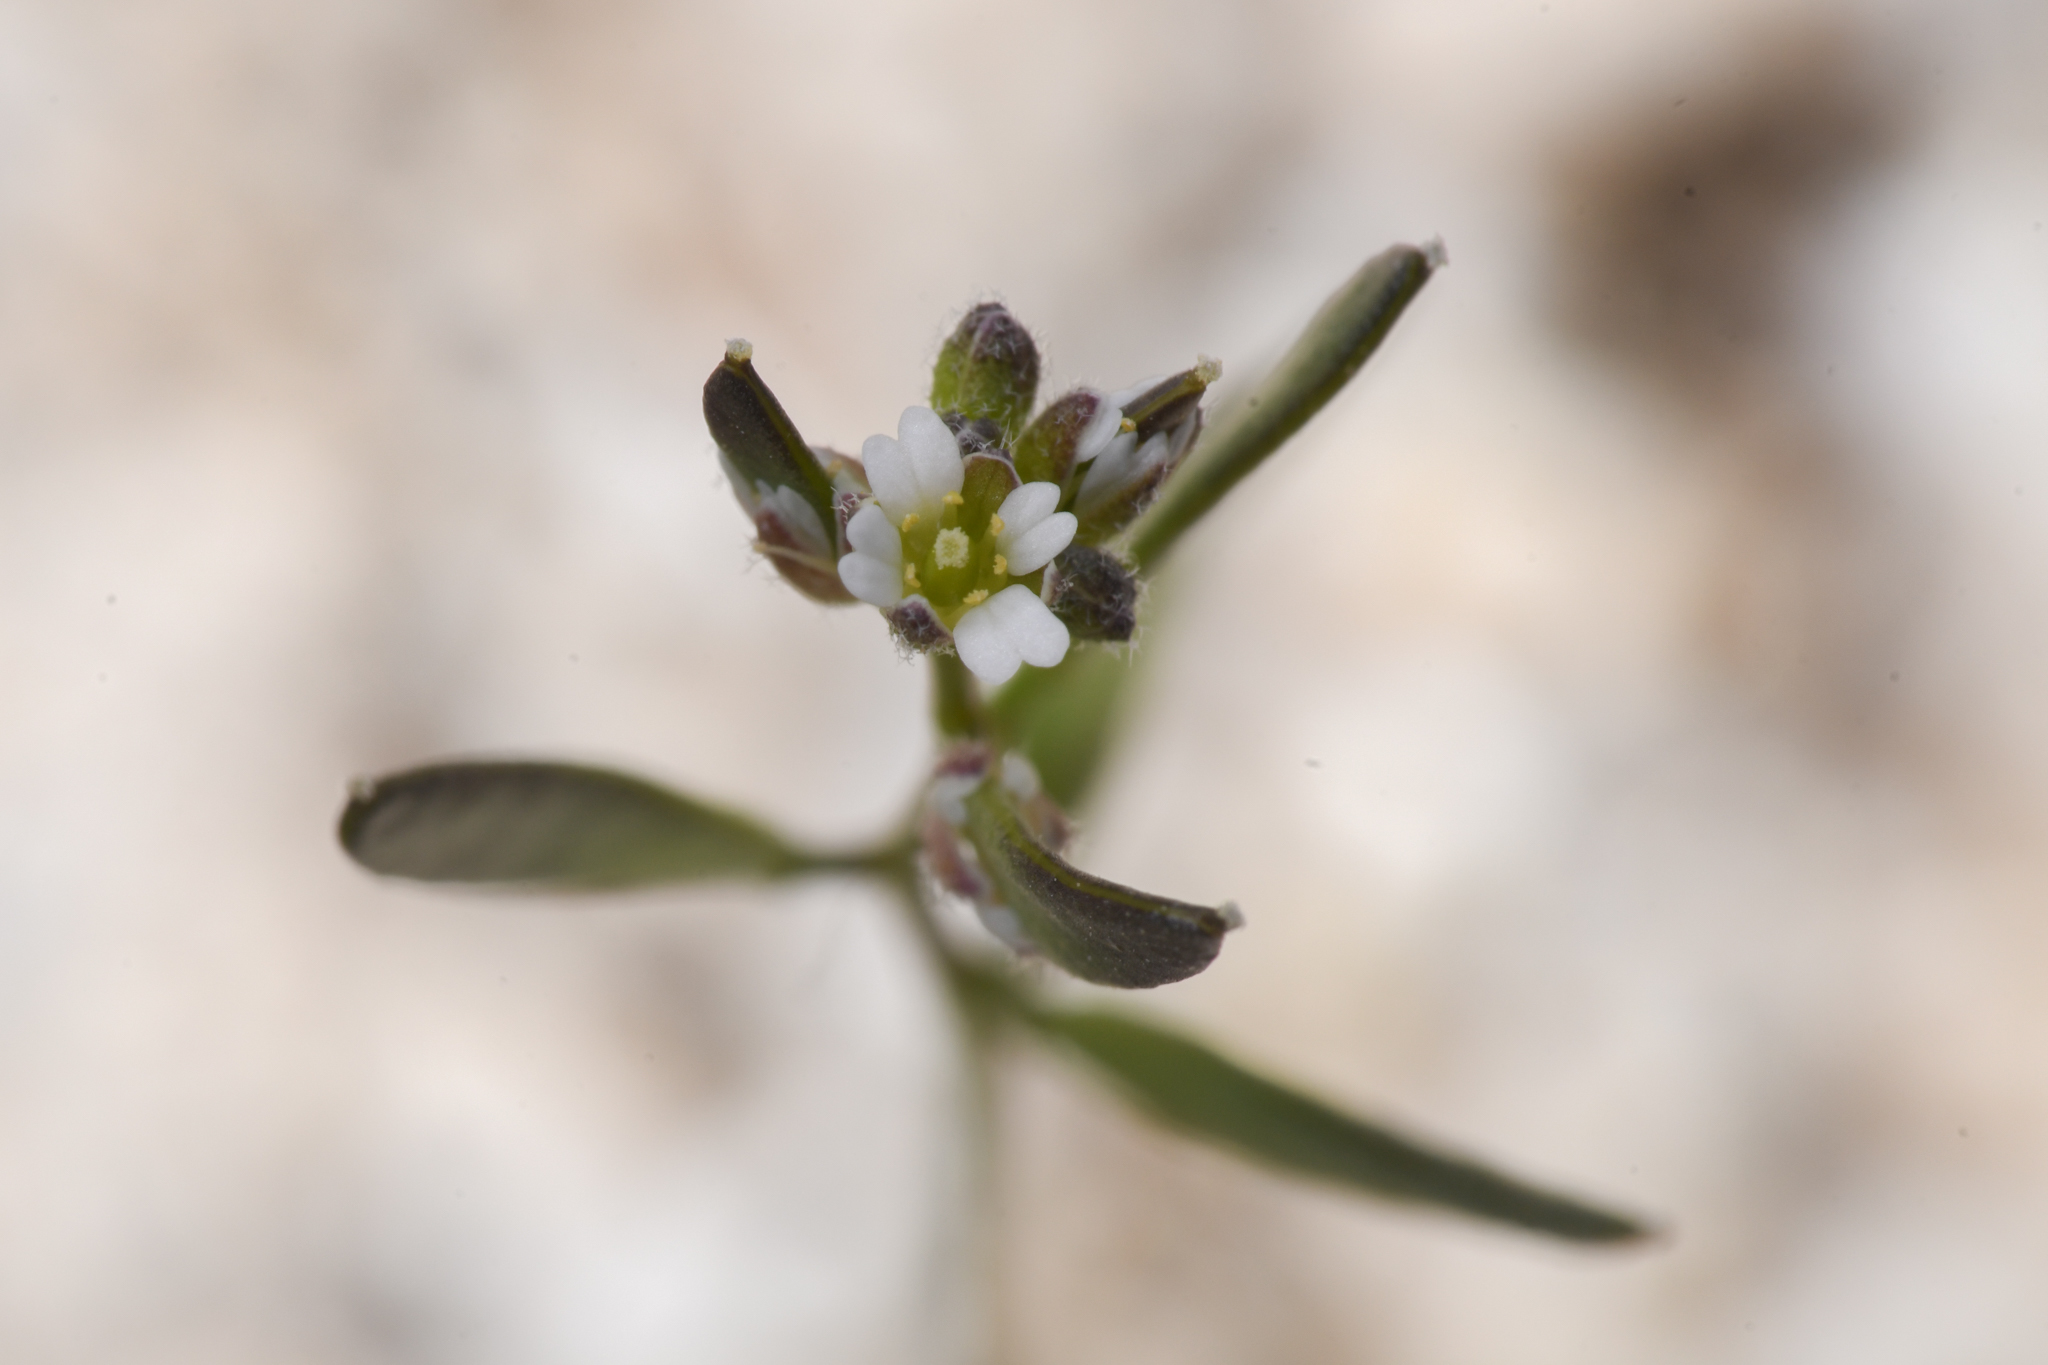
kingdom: Plantae
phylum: Tracheophyta
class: Magnoliopsida
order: Brassicales
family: Brassicaceae
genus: Tomostima
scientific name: Tomostima cuneifolia
